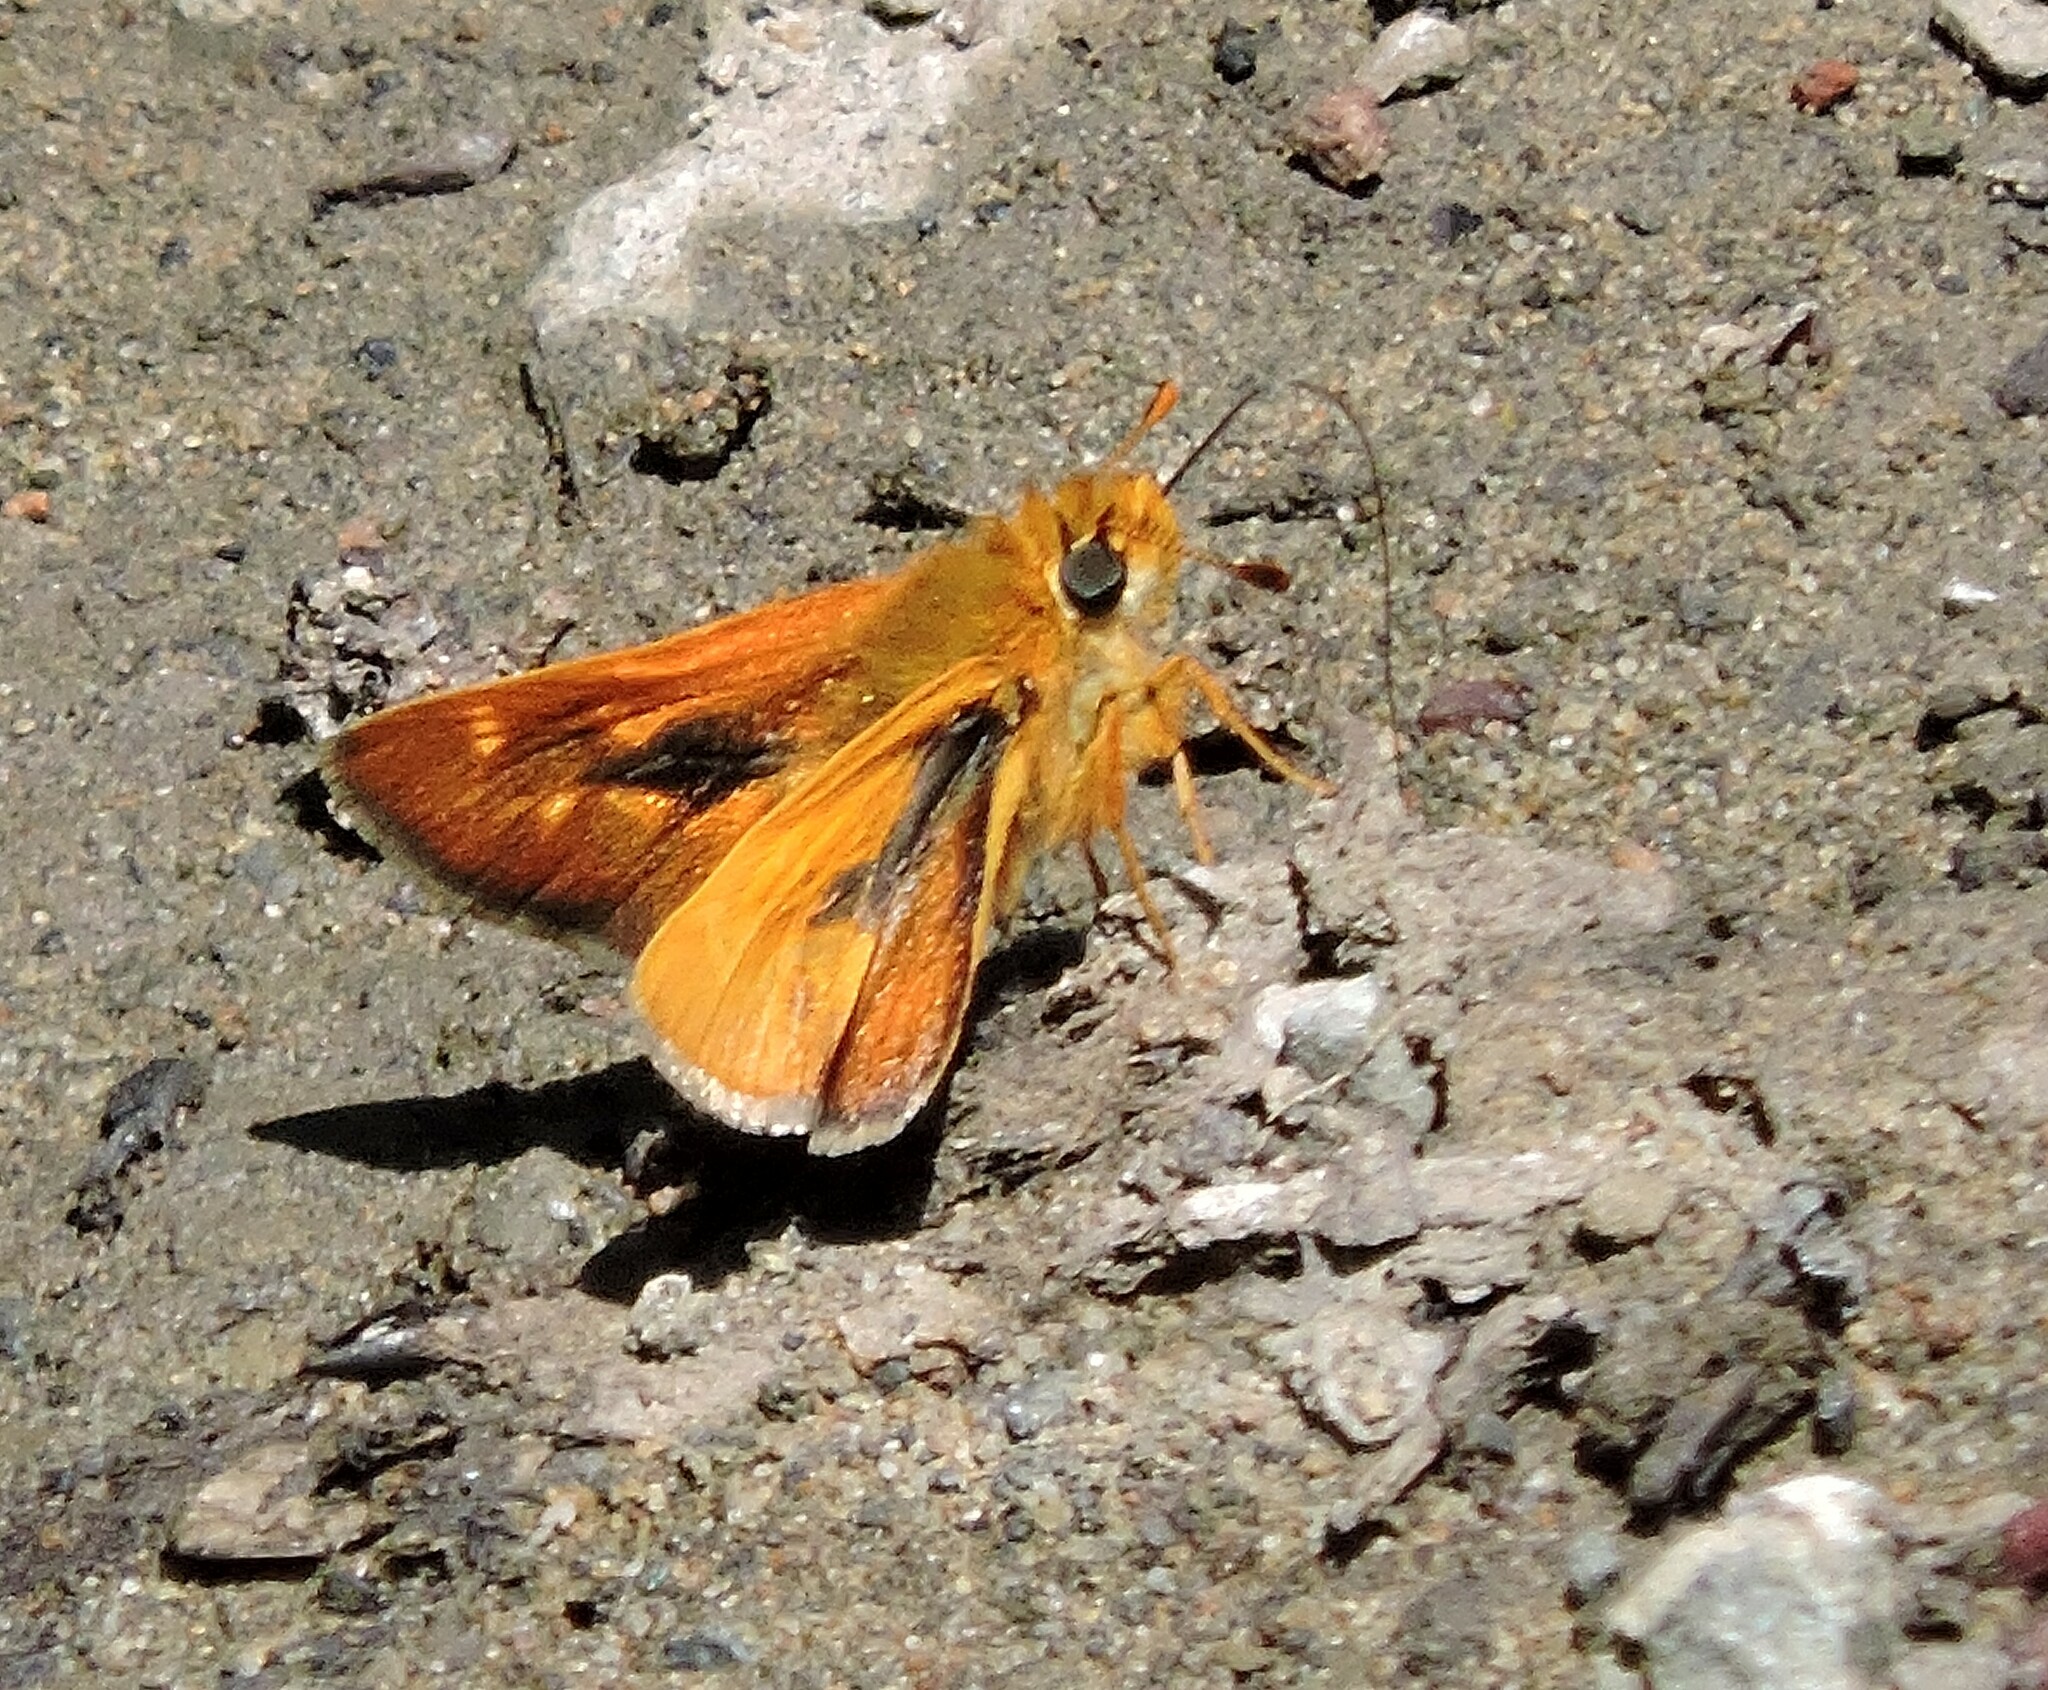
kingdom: Animalia
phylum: Arthropoda
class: Insecta
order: Lepidoptera
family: Hesperiidae
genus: Ochlodes
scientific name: Ochlodes agricola
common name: Rural skipper
